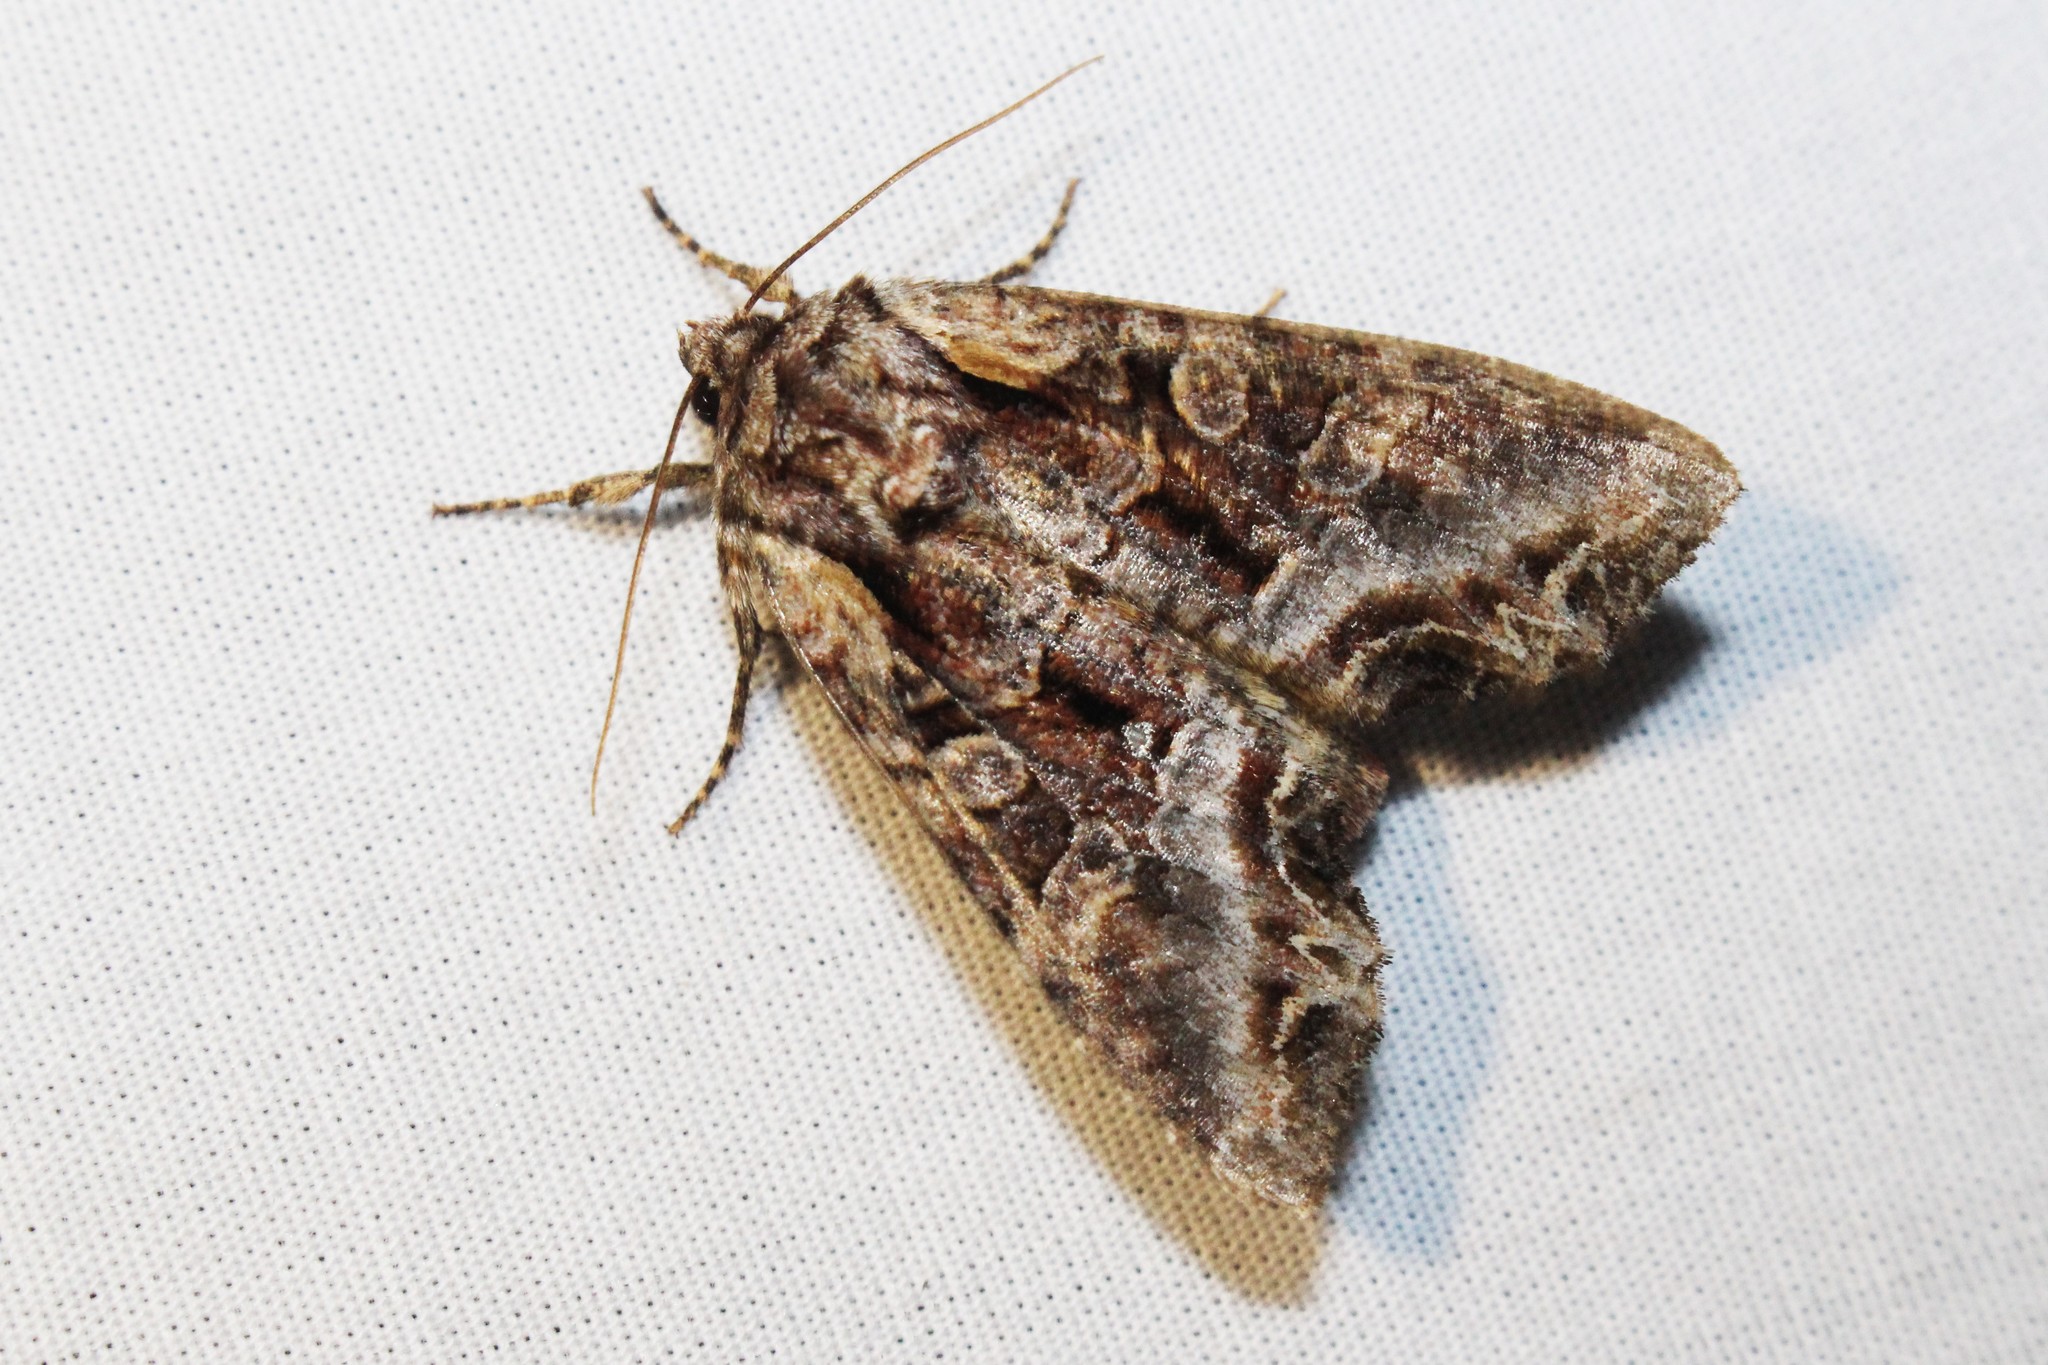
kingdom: Animalia
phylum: Arthropoda
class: Insecta
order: Lepidoptera
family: Noctuidae
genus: Lacanobia
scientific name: Lacanobia grandis
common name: Grand arches moth
